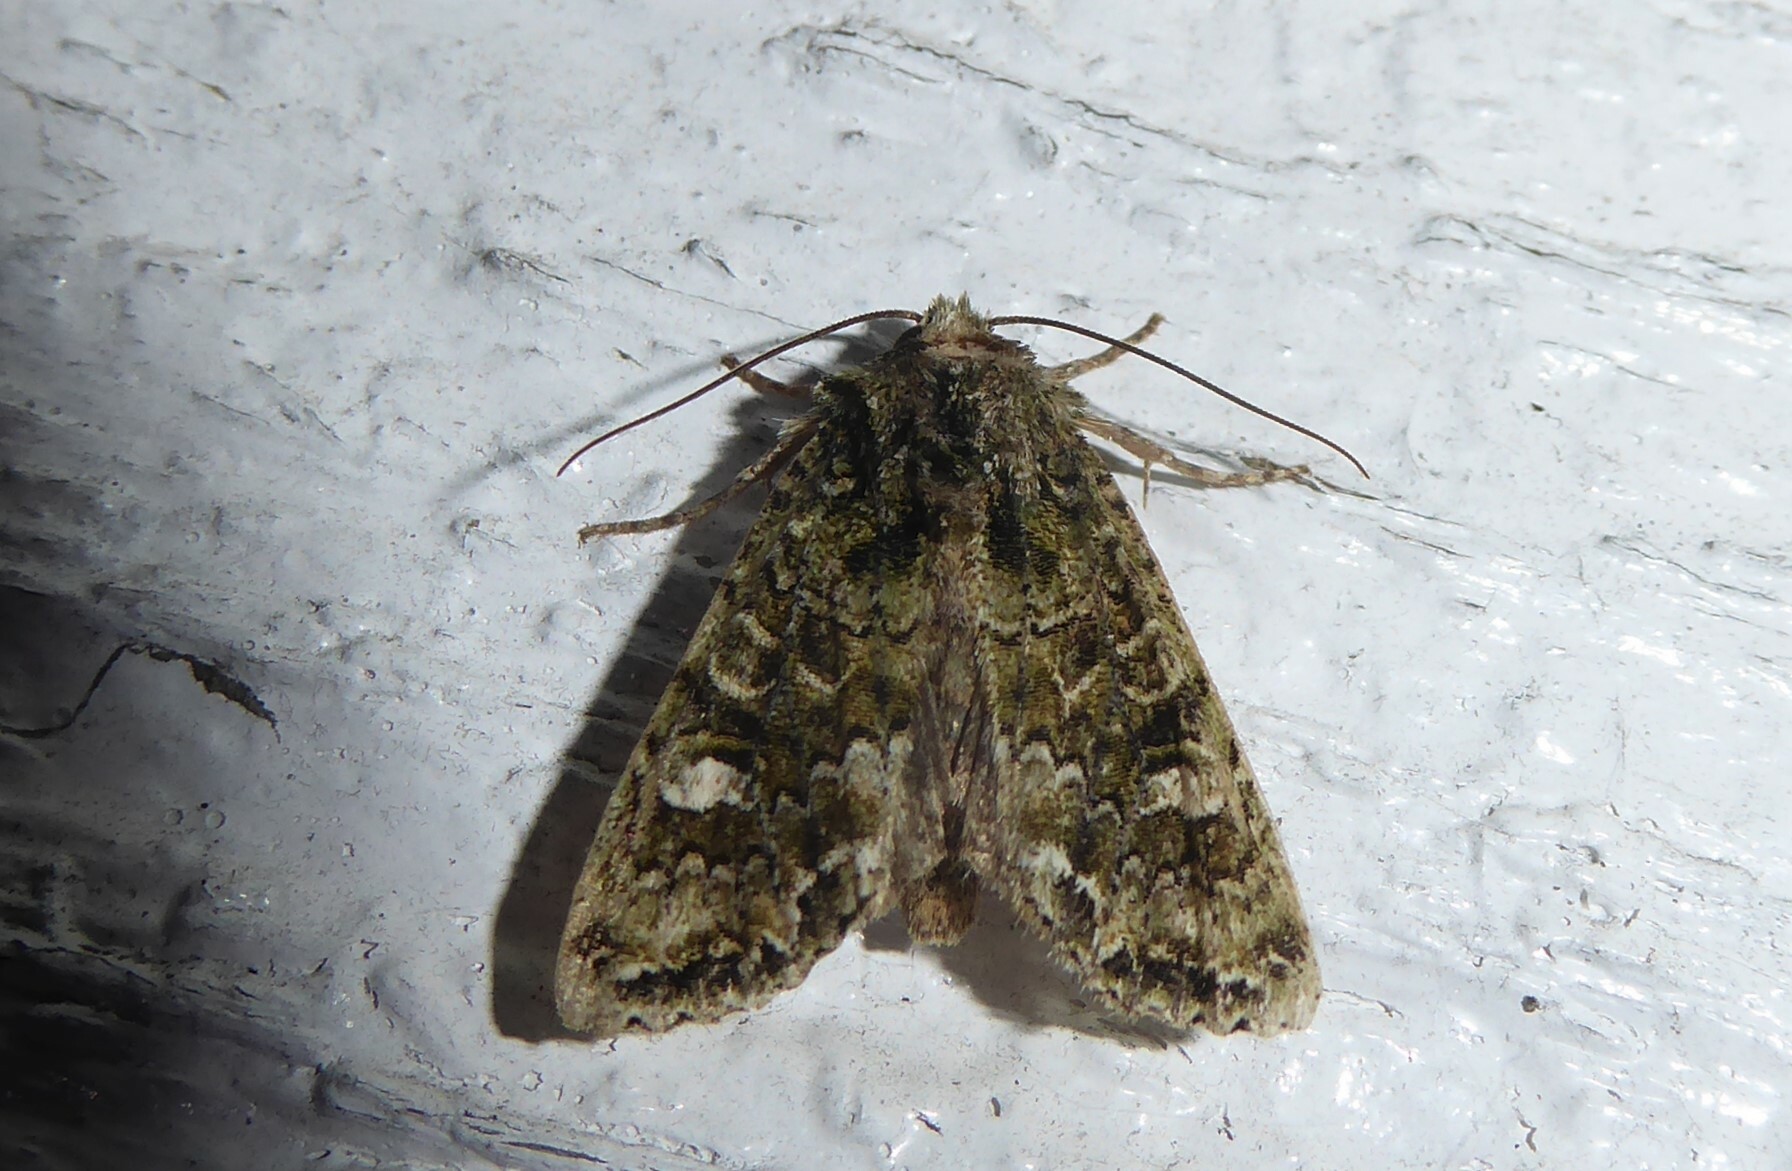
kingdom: Animalia
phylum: Arthropoda
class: Insecta
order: Lepidoptera
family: Noctuidae
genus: Ichneutica
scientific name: Ichneutica
